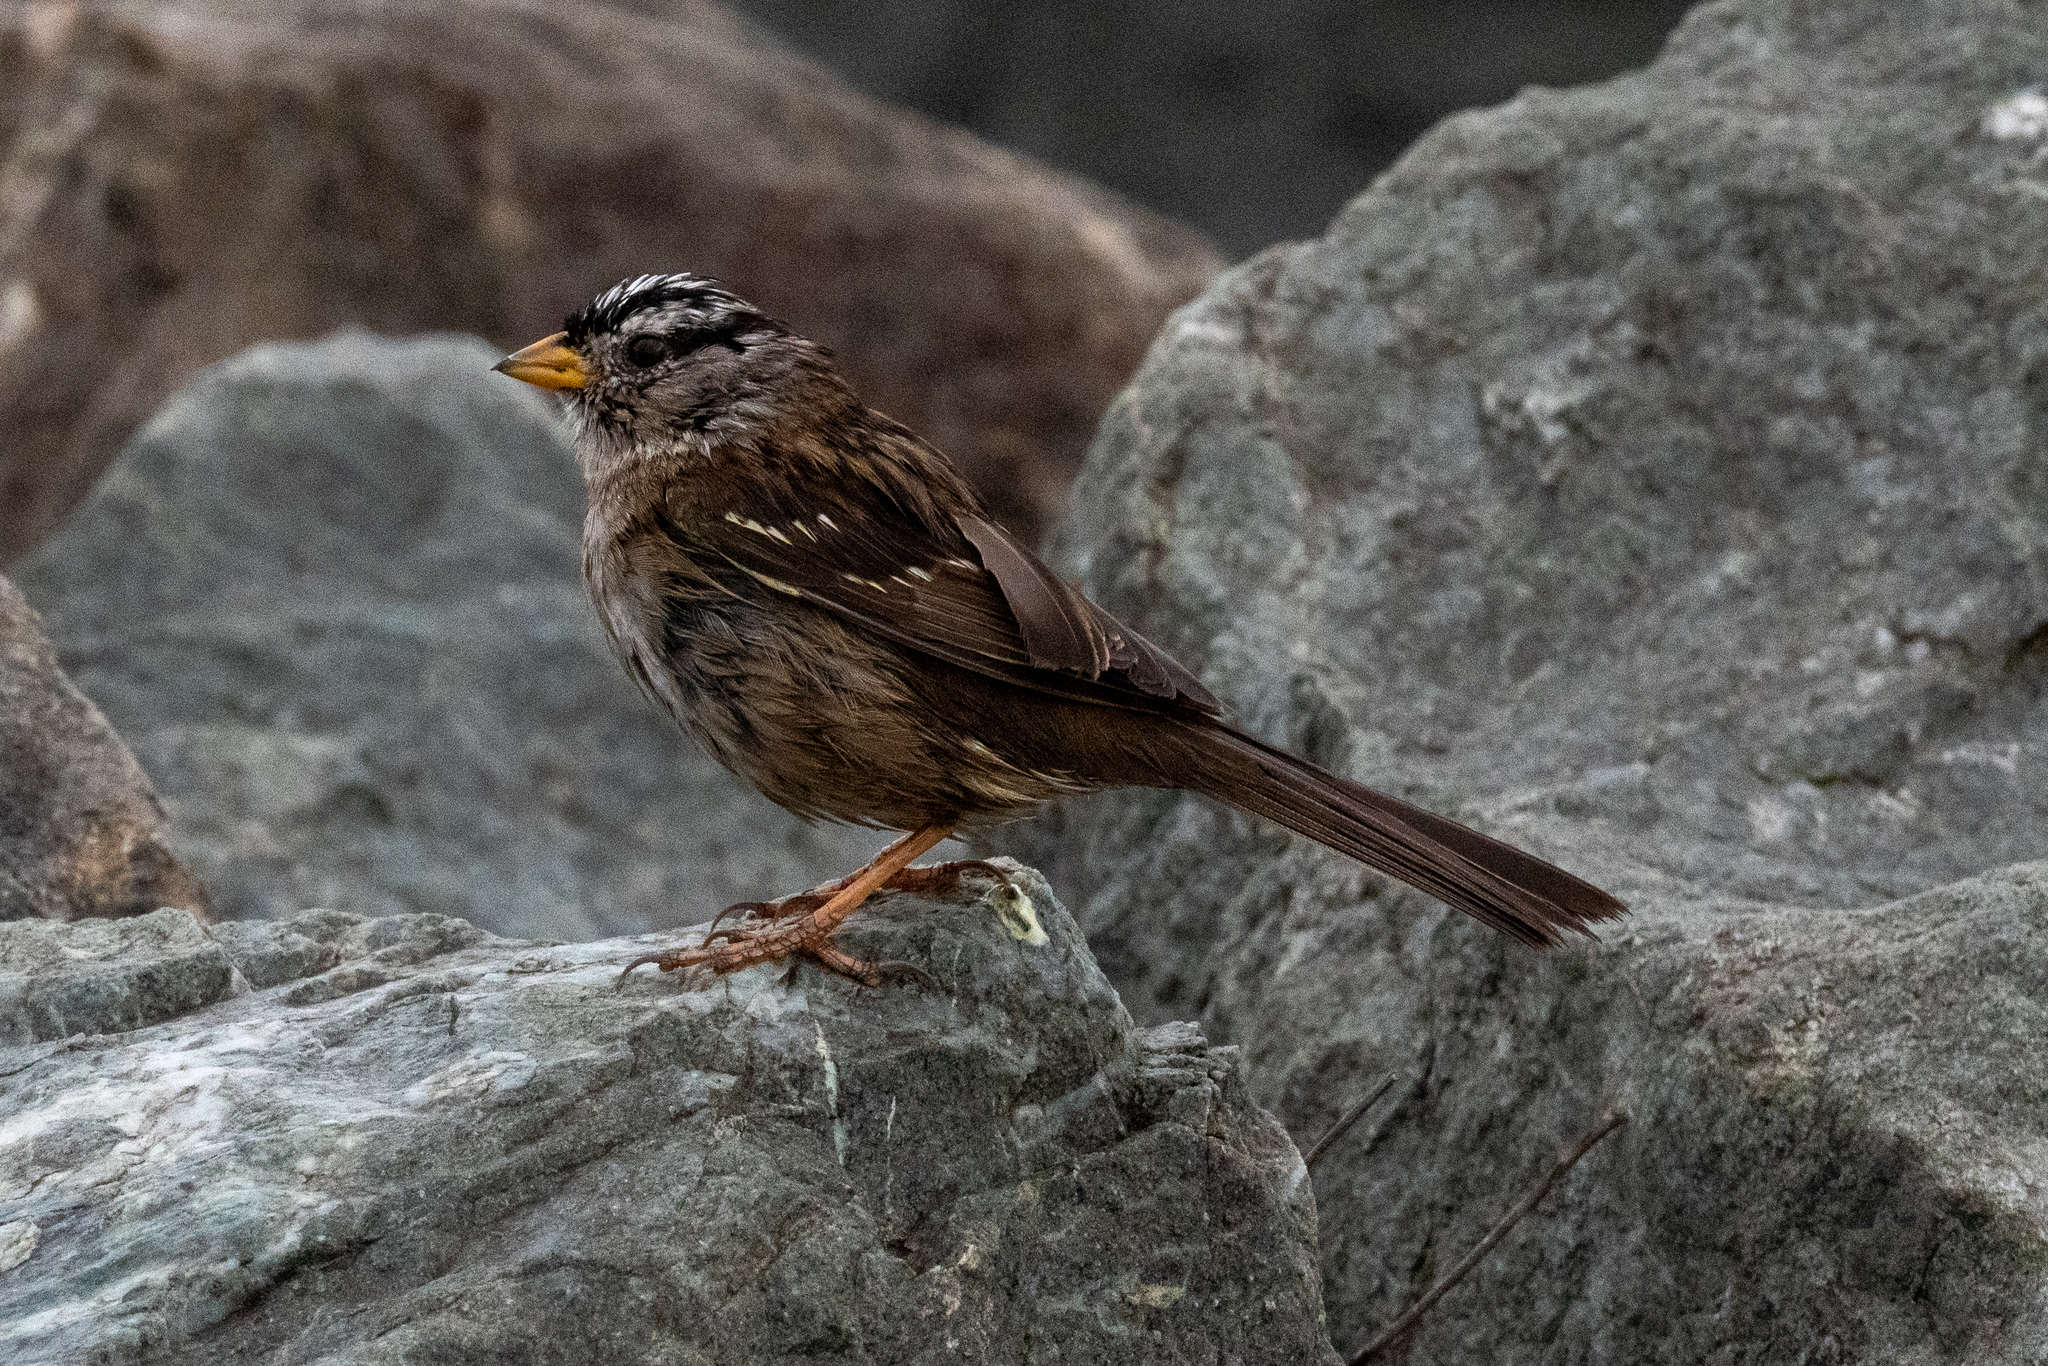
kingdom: Animalia
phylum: Chordata
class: Aves
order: Passeriformes
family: Passerellidae
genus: Zonotrichia
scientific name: Zonotrichia leucophrys
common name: White-crowned sparrow
